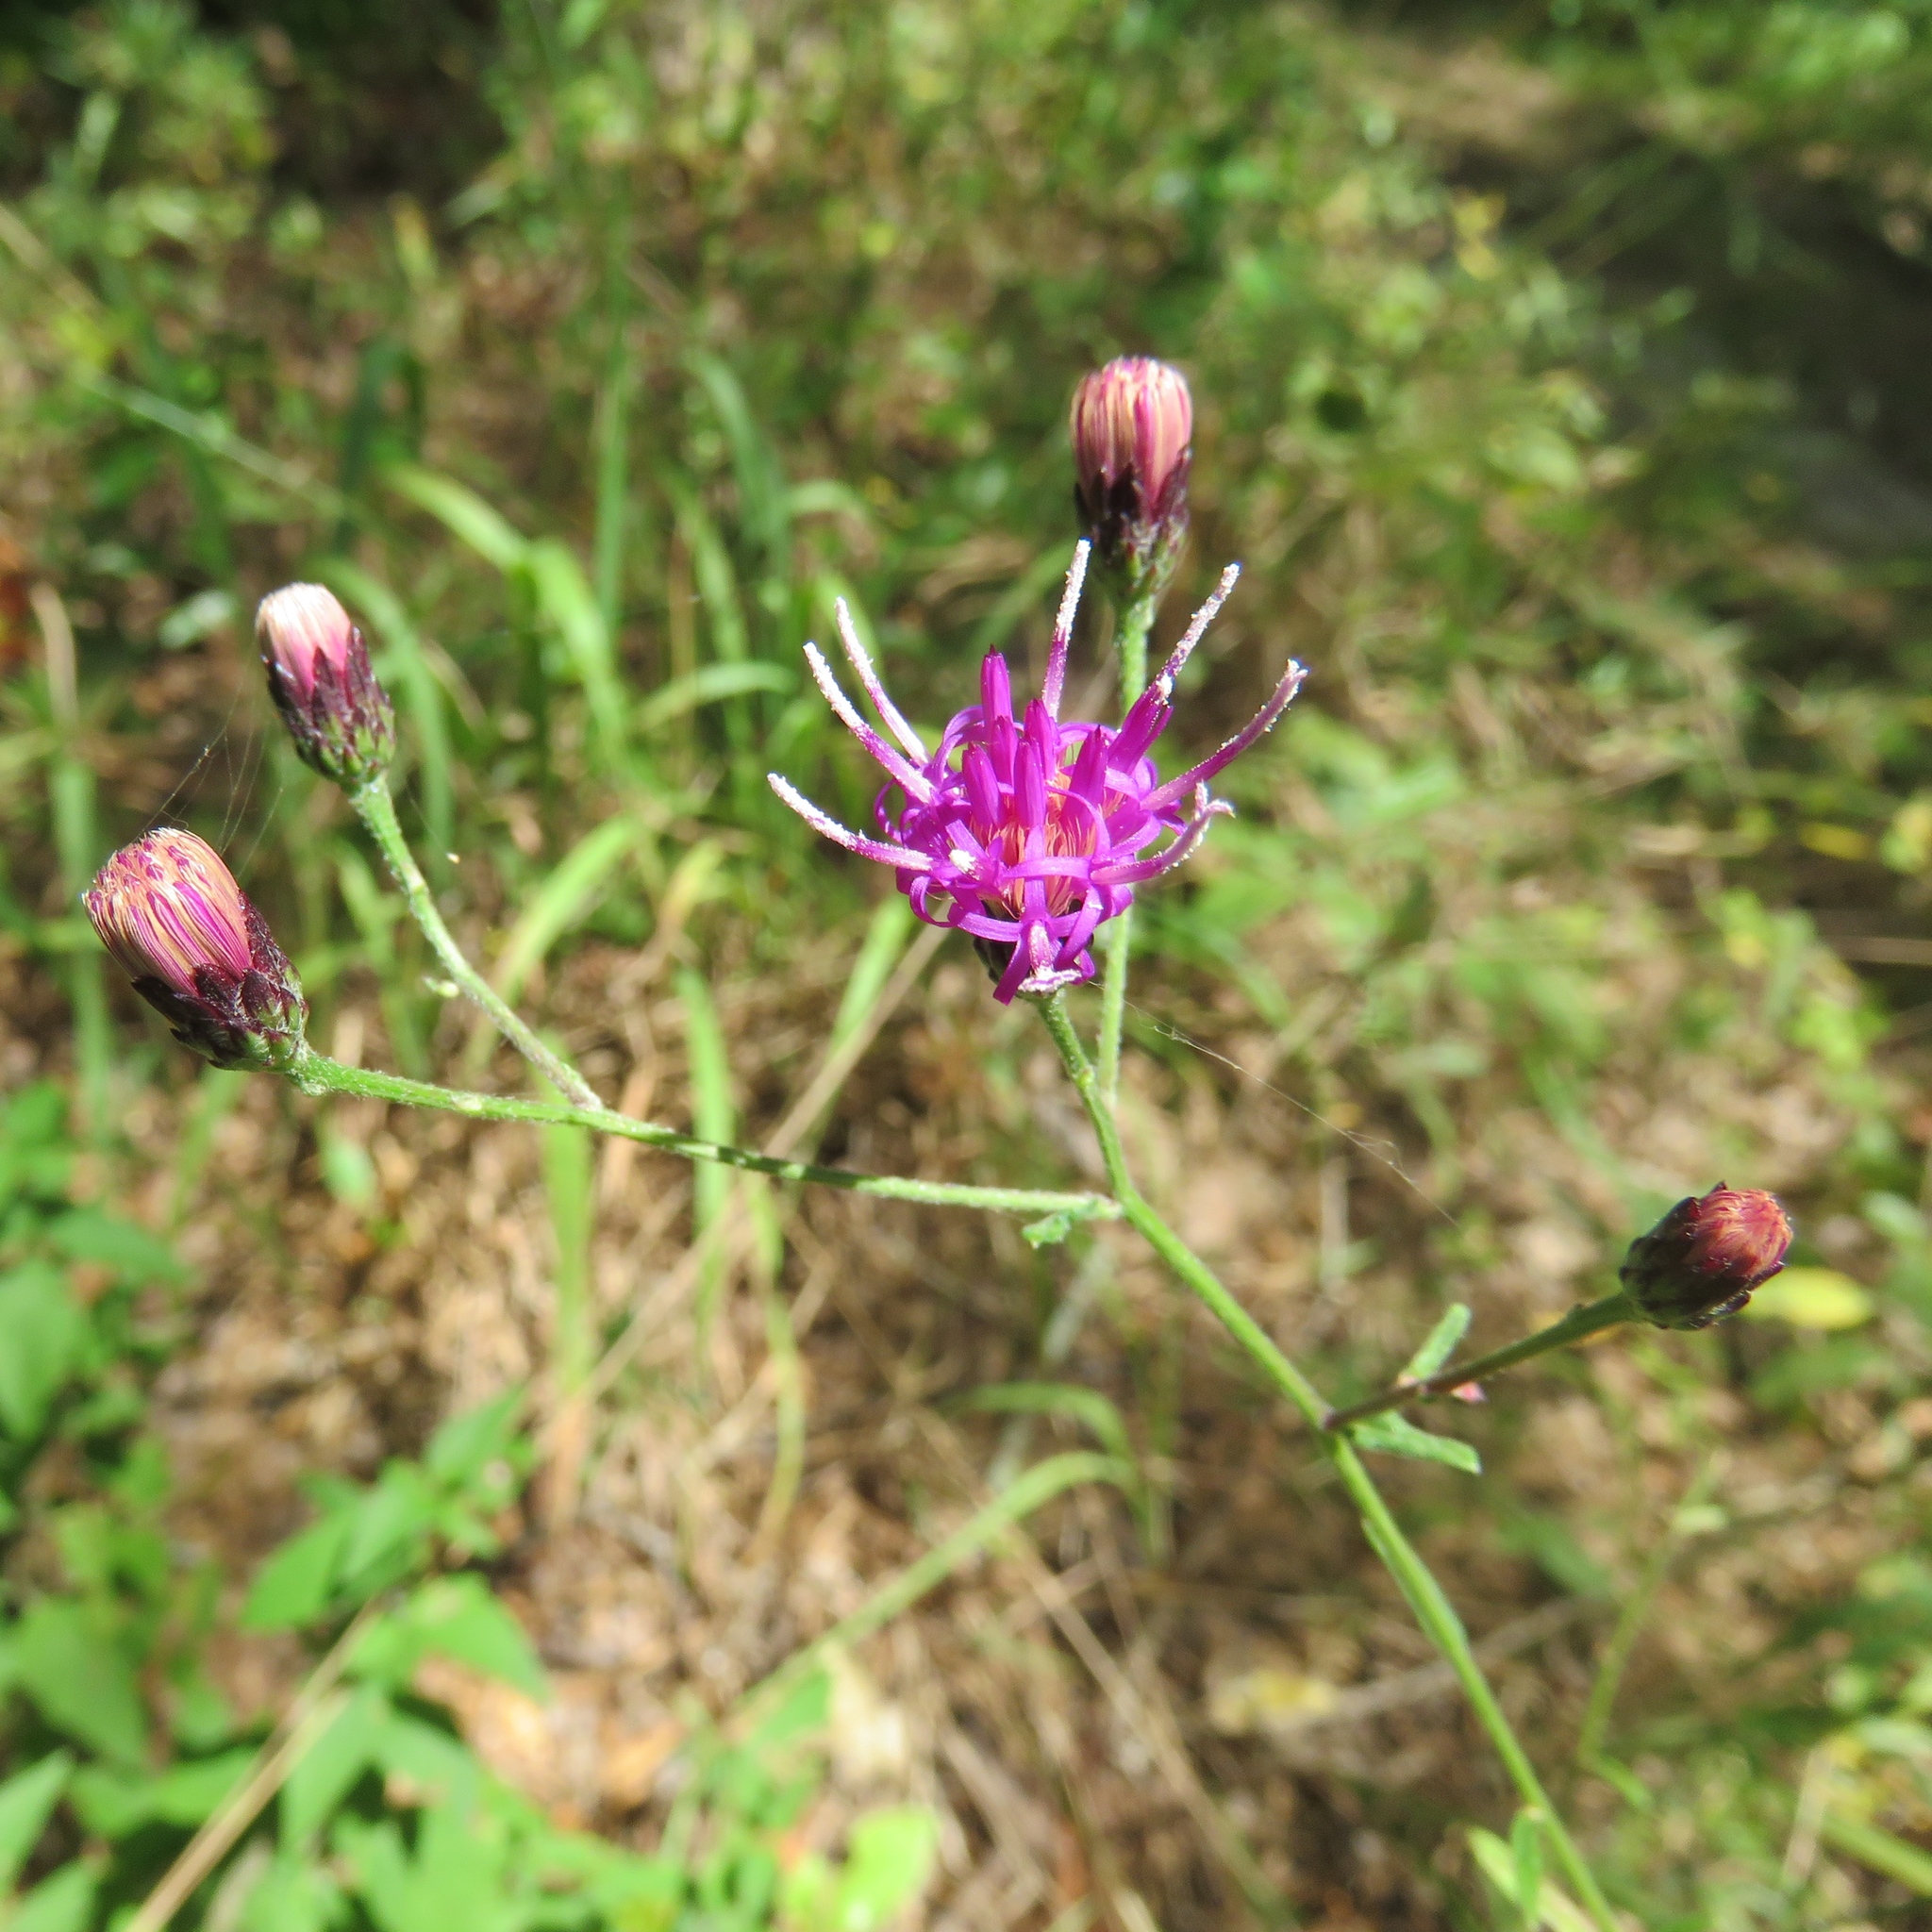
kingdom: Plantae
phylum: Tracheophyta
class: Magnoliopsida
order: Asterales
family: Asteraceae
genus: Vernonia
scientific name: Vernonia texana
